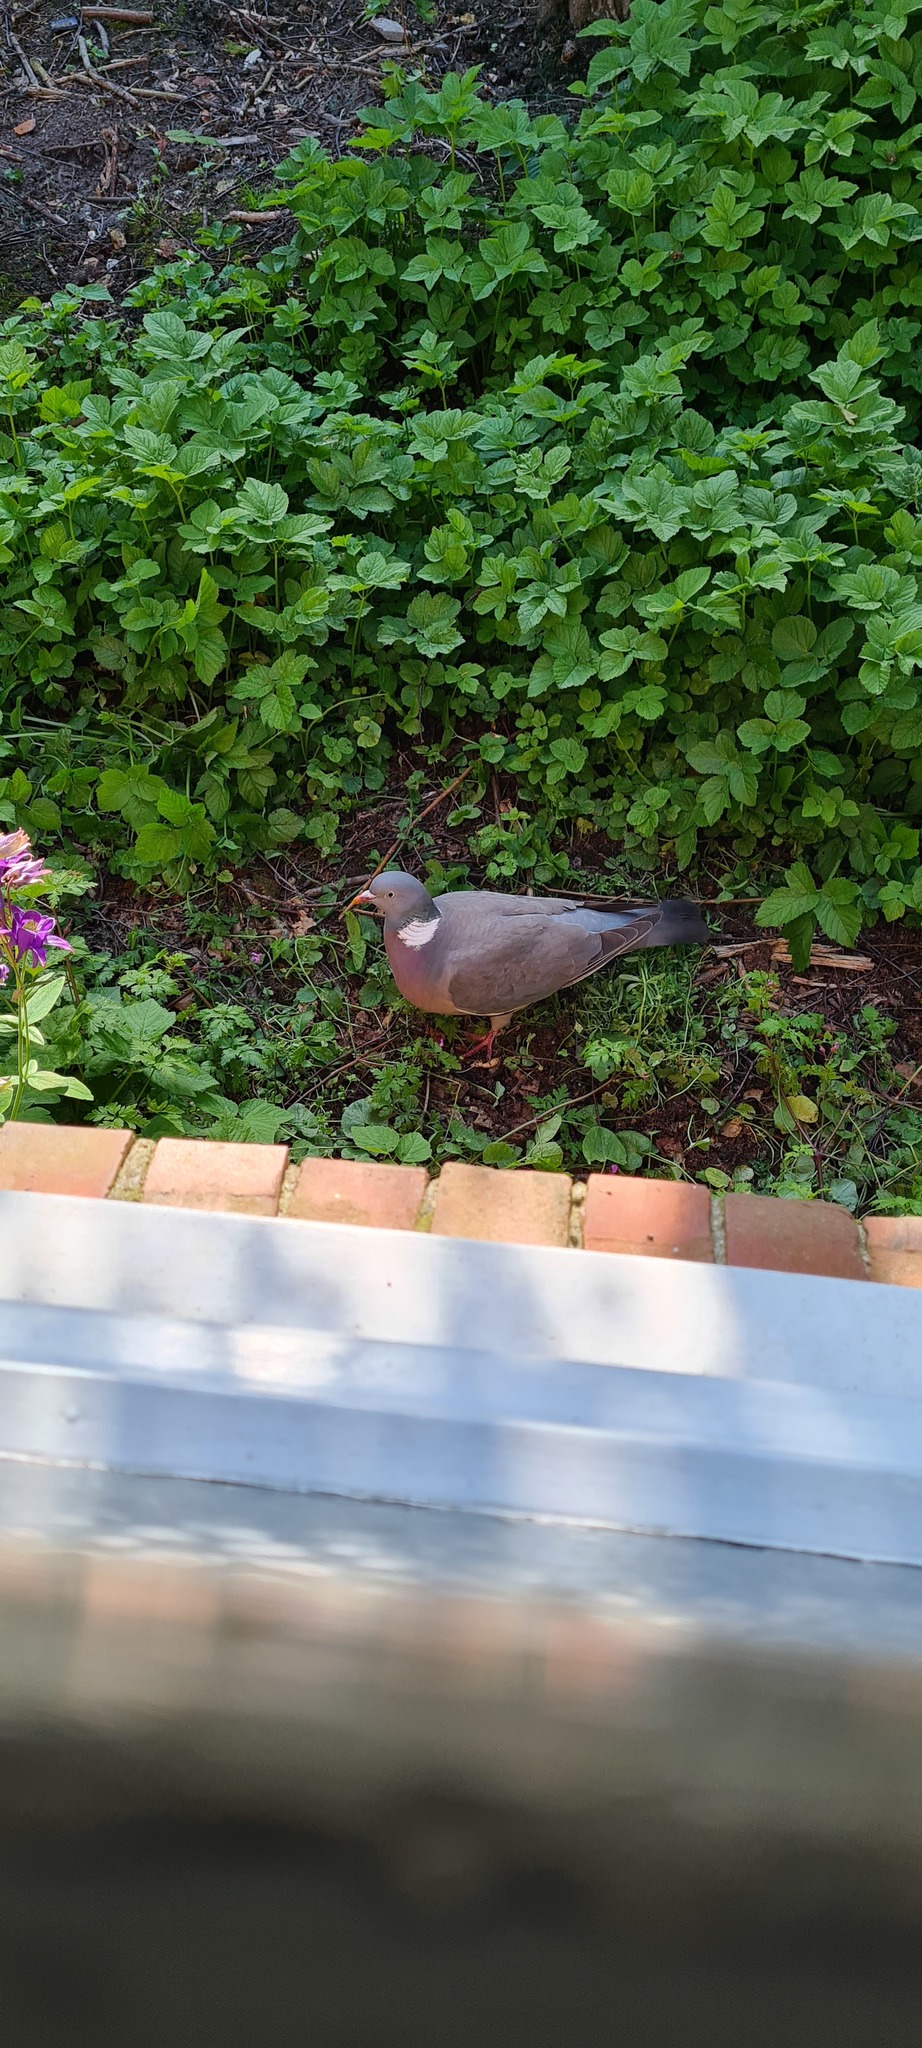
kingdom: Animalia
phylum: Chordata
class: Aves
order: Columbiformes
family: Columbidae
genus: Columba
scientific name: Columba palumbus
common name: Common wood pigeon
